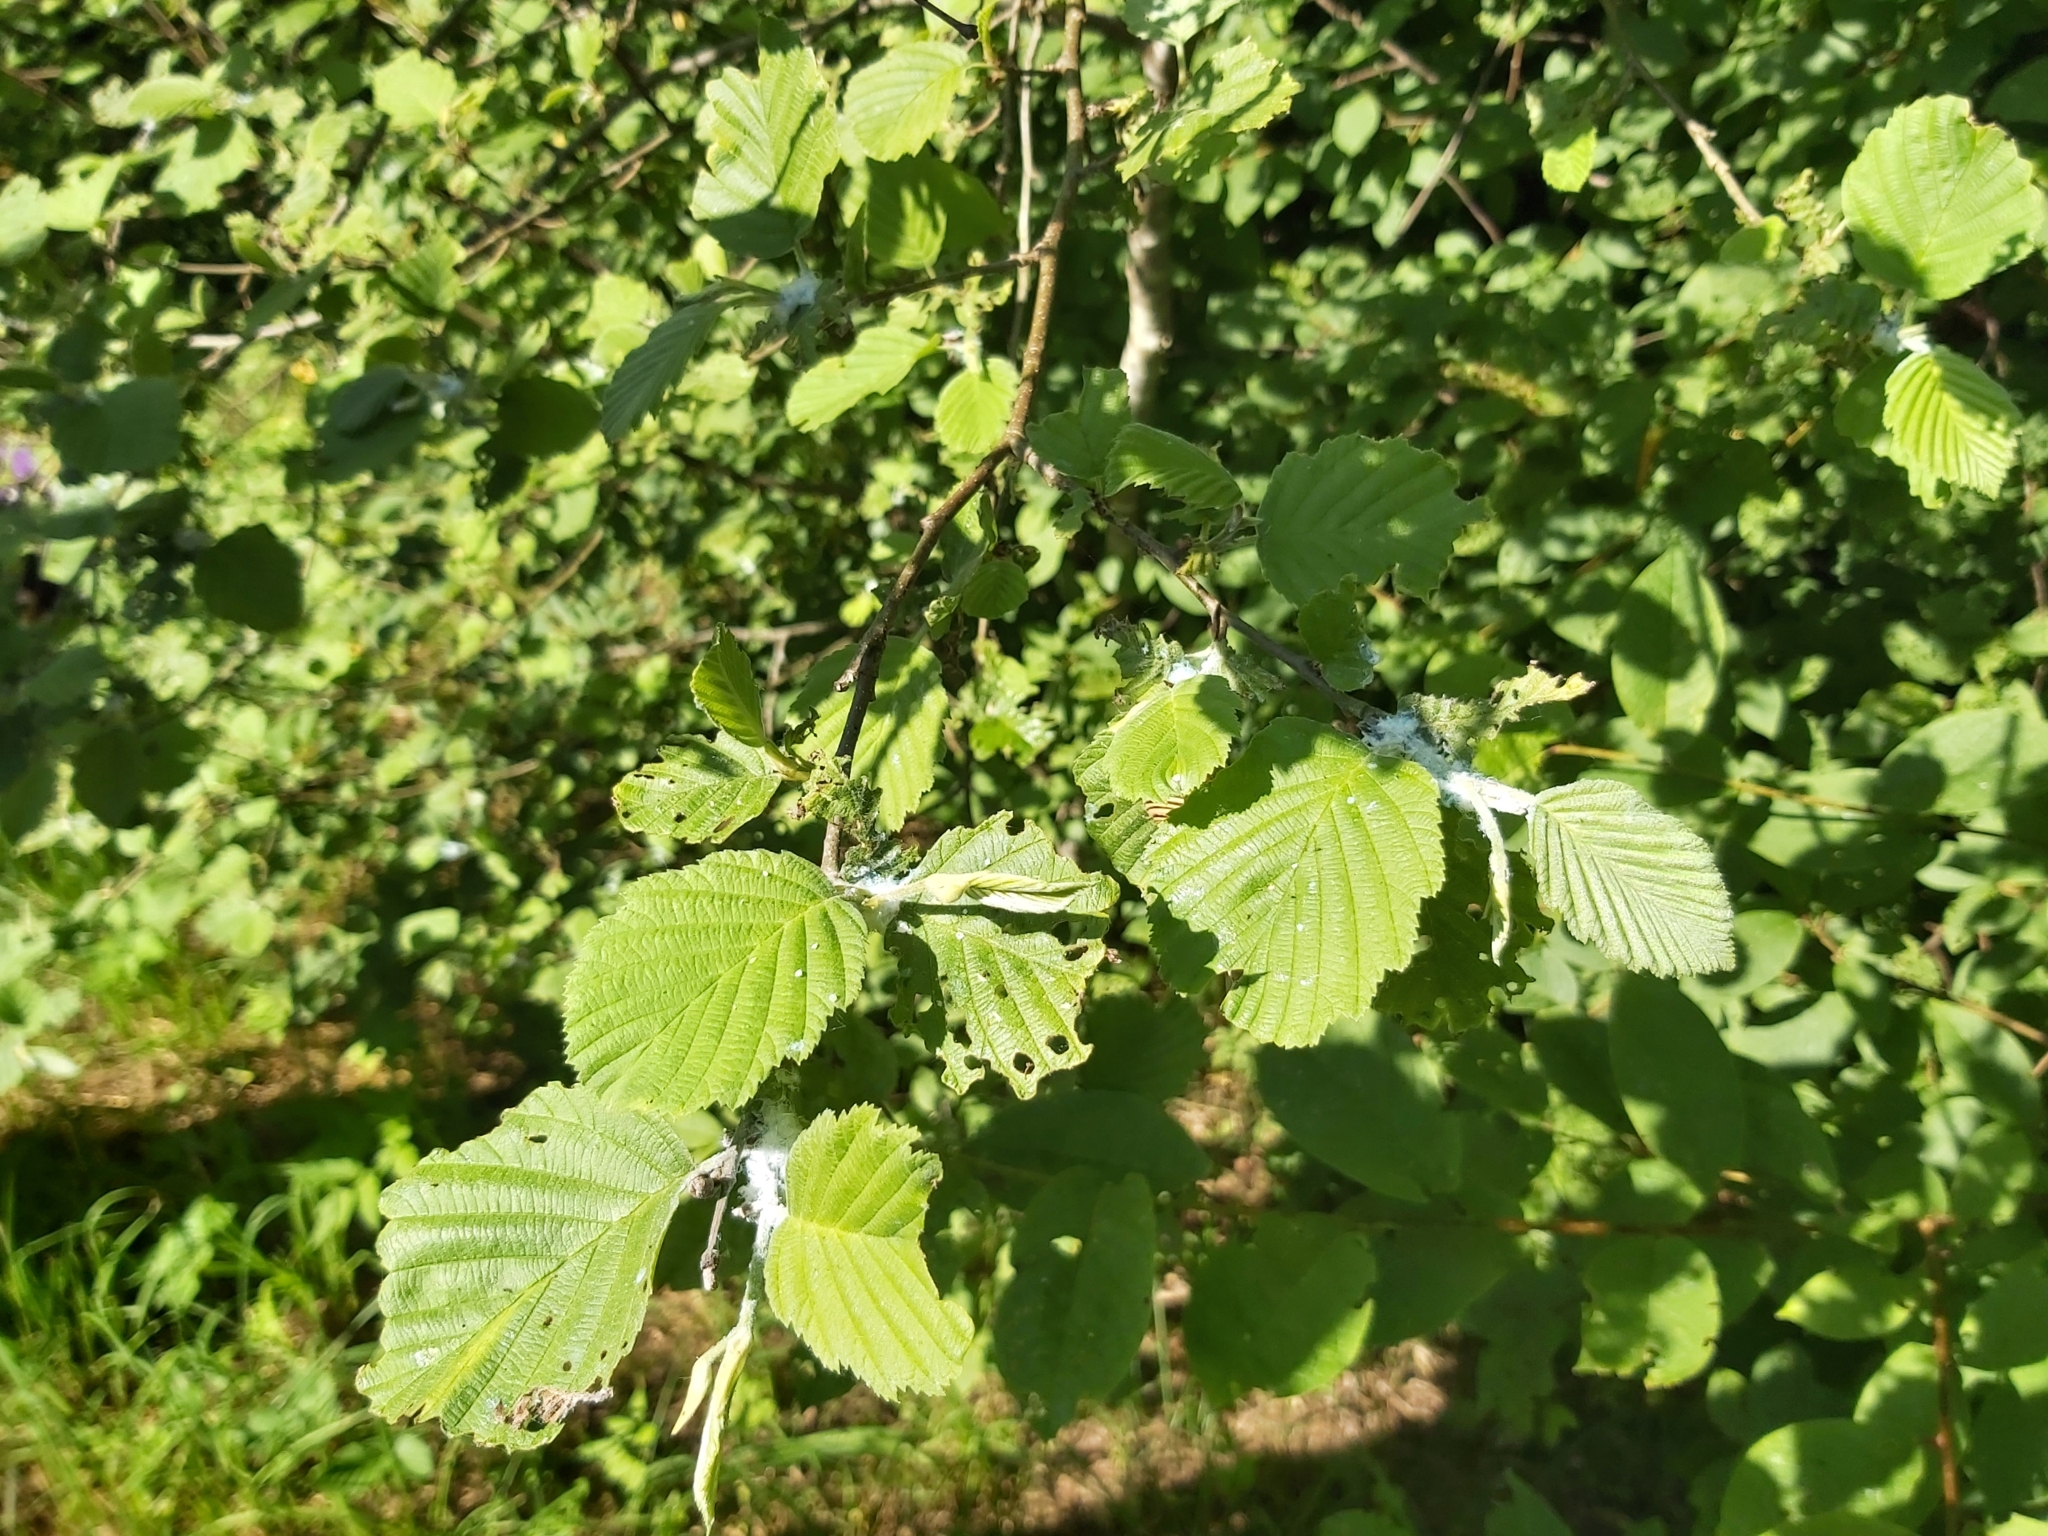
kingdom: Animalia
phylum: Arthropoda
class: Insecta
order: Hemiptera
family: Psyllidae
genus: Psylla
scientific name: Psylla alni
